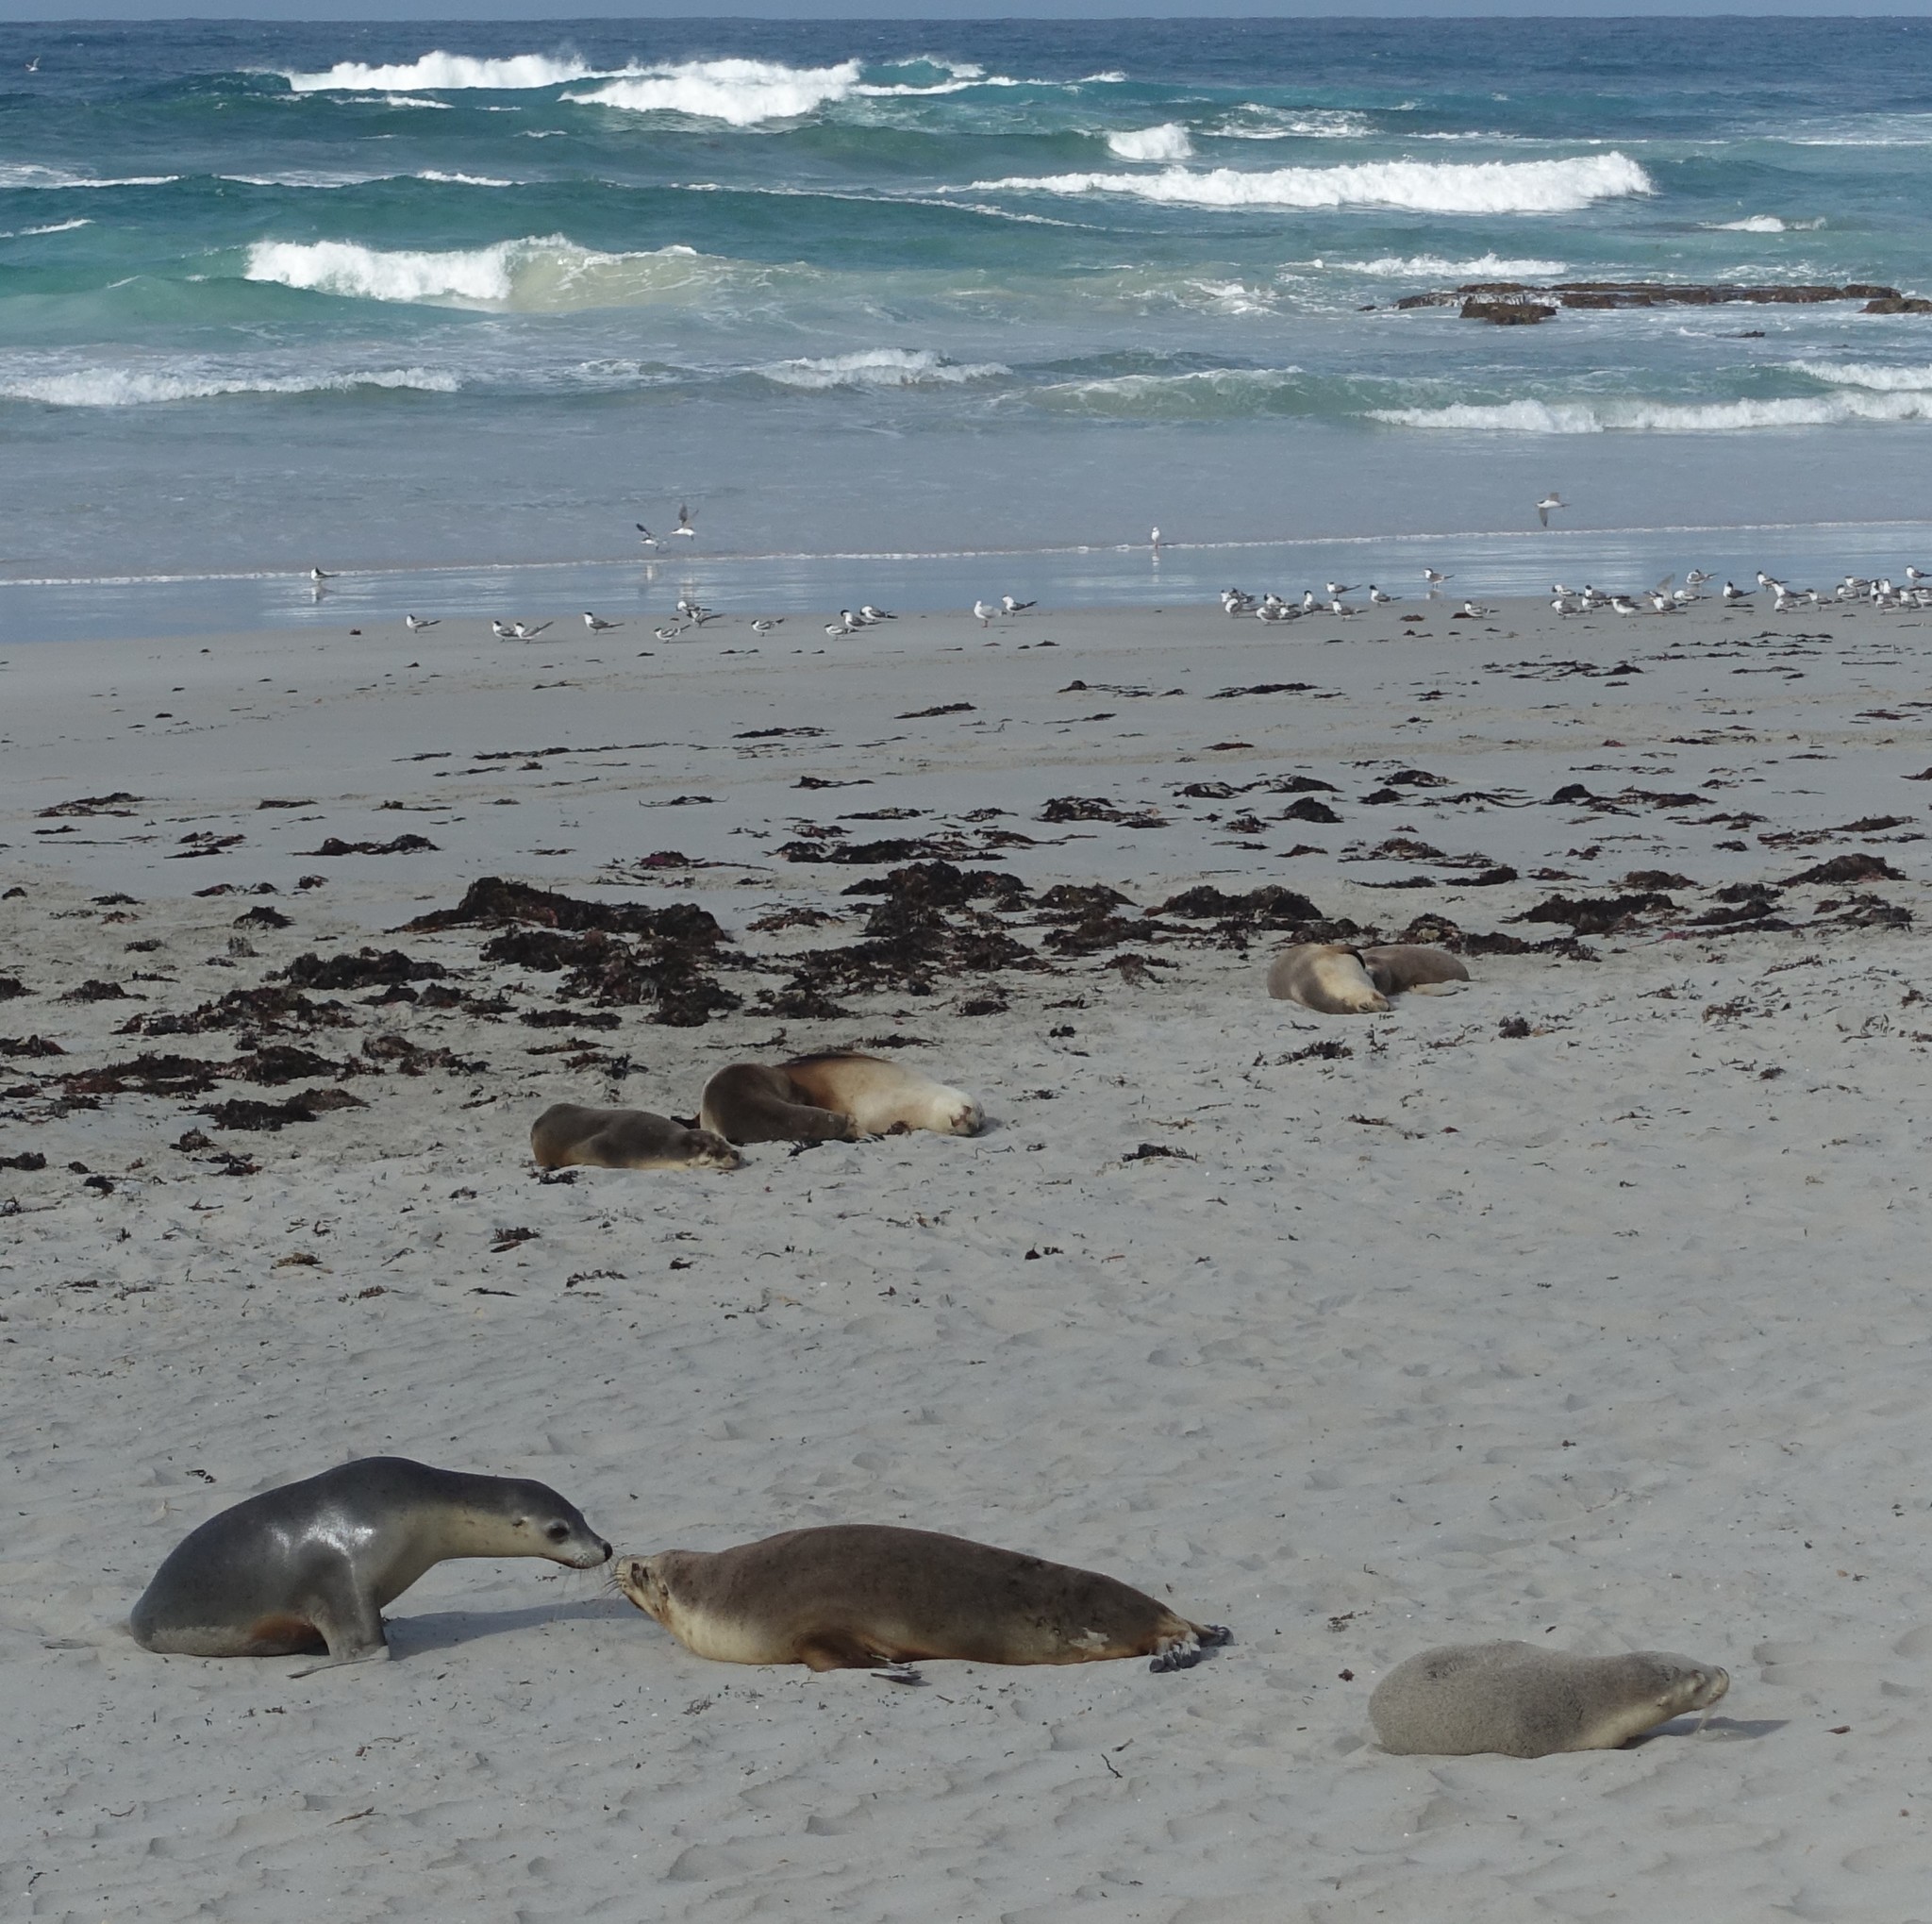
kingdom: Animalia
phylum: Chordata
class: Mammalia
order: Carnivora
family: Otariidae
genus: Neophoca
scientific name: Neophoca cinerea
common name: Australian sea lion
